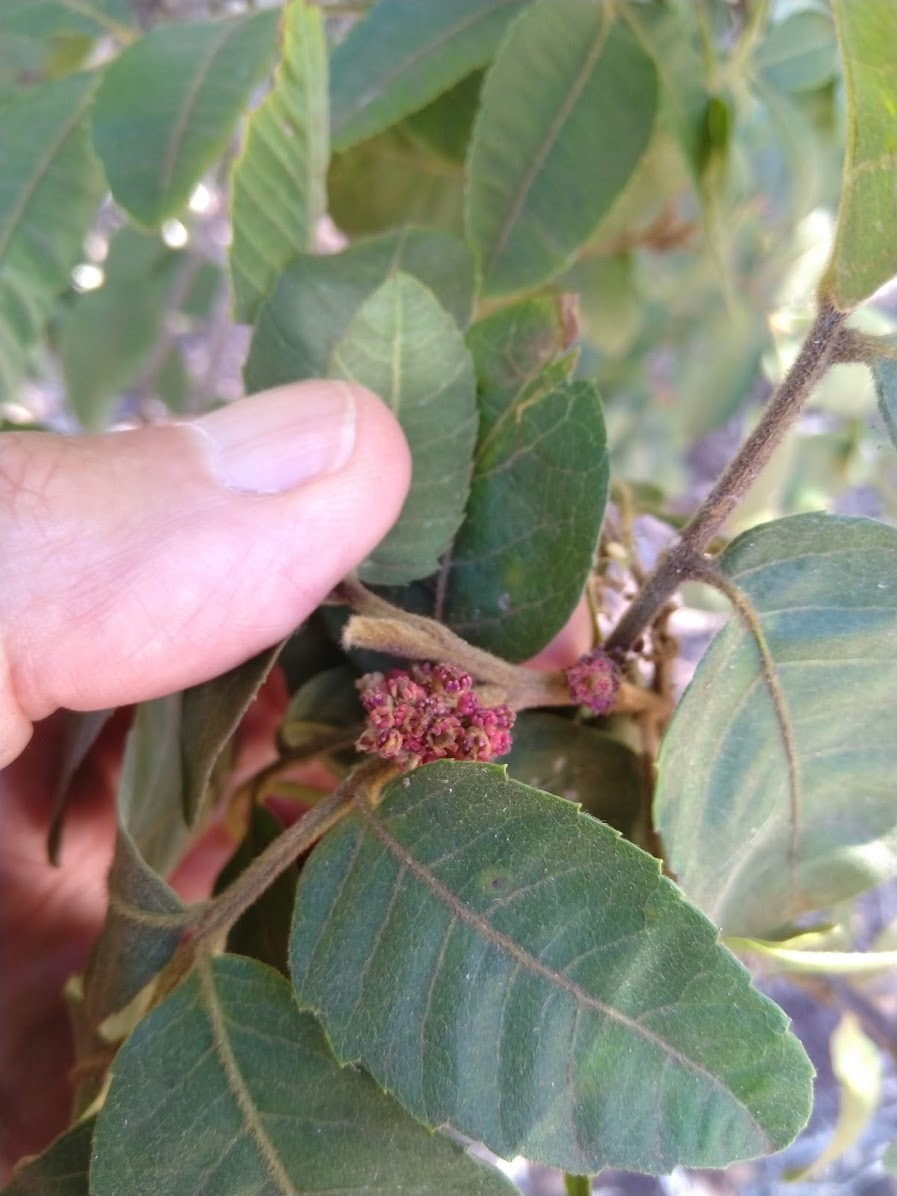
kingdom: Plantae
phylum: Tracheophyta
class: Magnoliopsida
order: Sapindales
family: Sapindaceae
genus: Alectryon
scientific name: Alectryon tomentosus
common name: Bed-jacket
